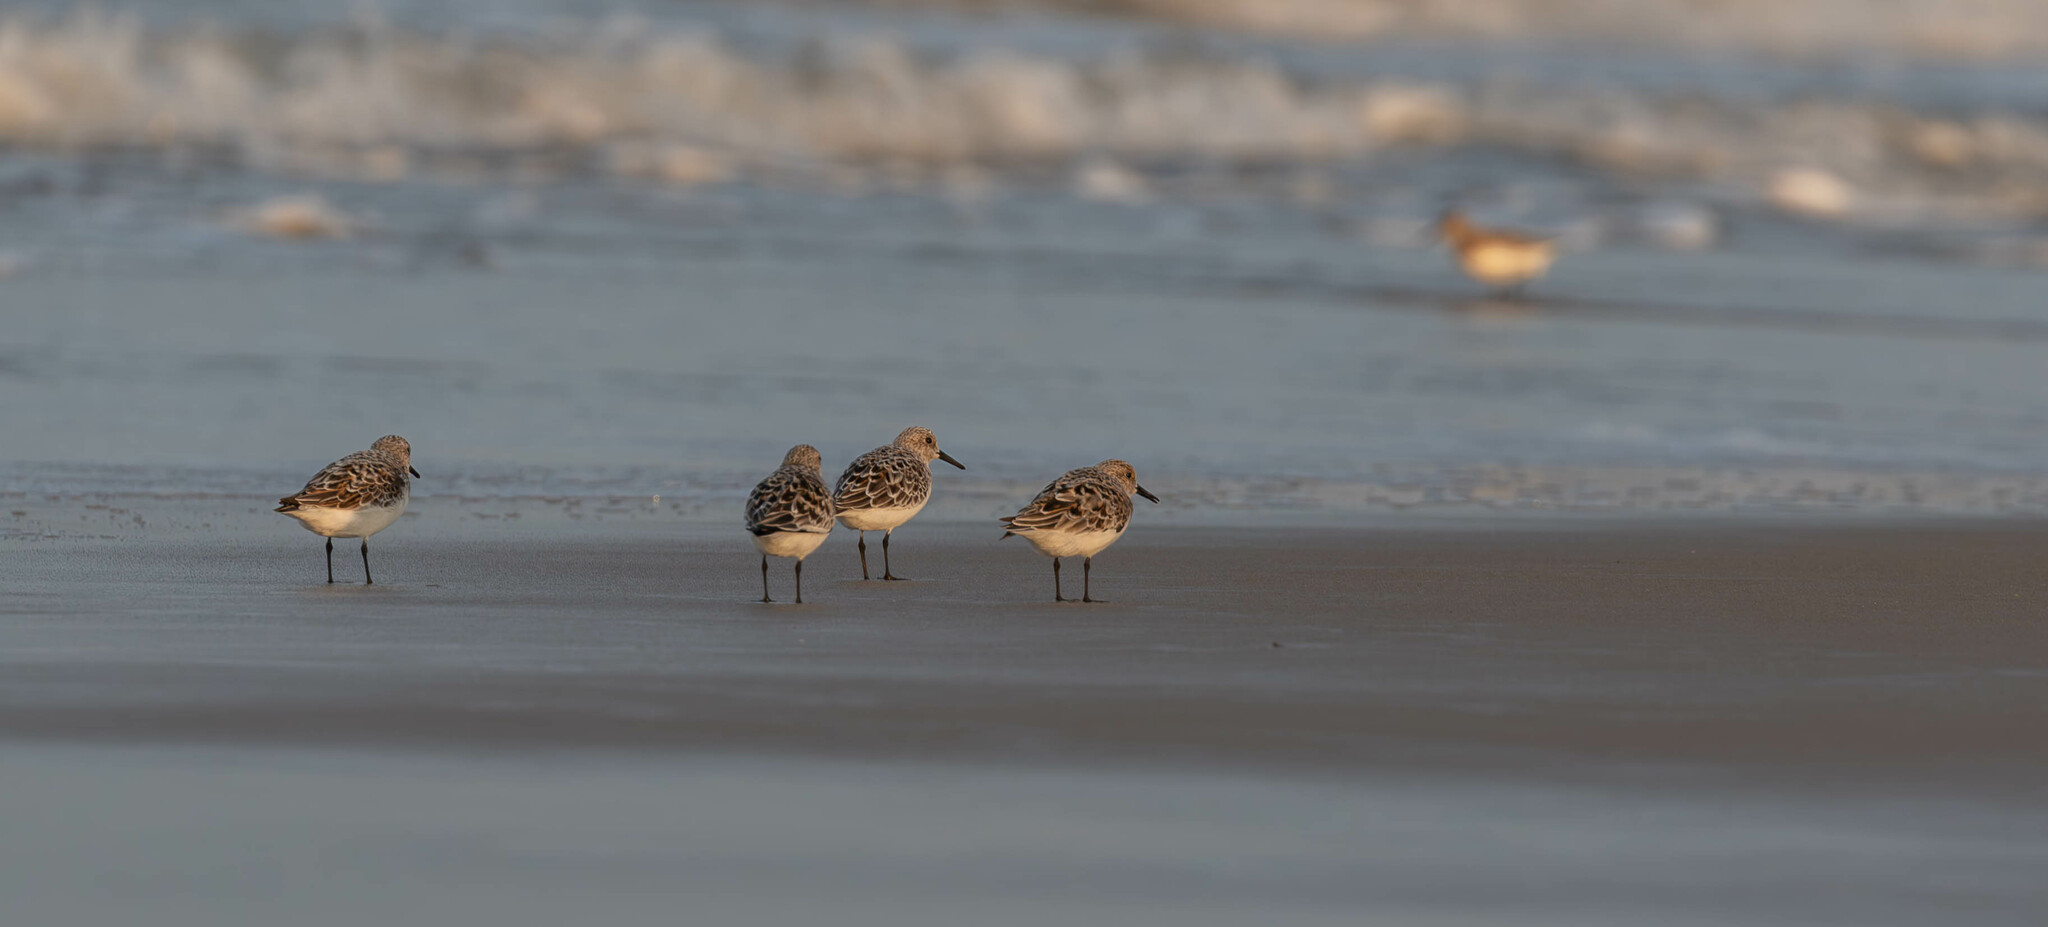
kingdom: Animalia
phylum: Chordata
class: Aves
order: Charadriiformes
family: Scolopacidae
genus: Calidris
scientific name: Calidris alba
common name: Sanderling
